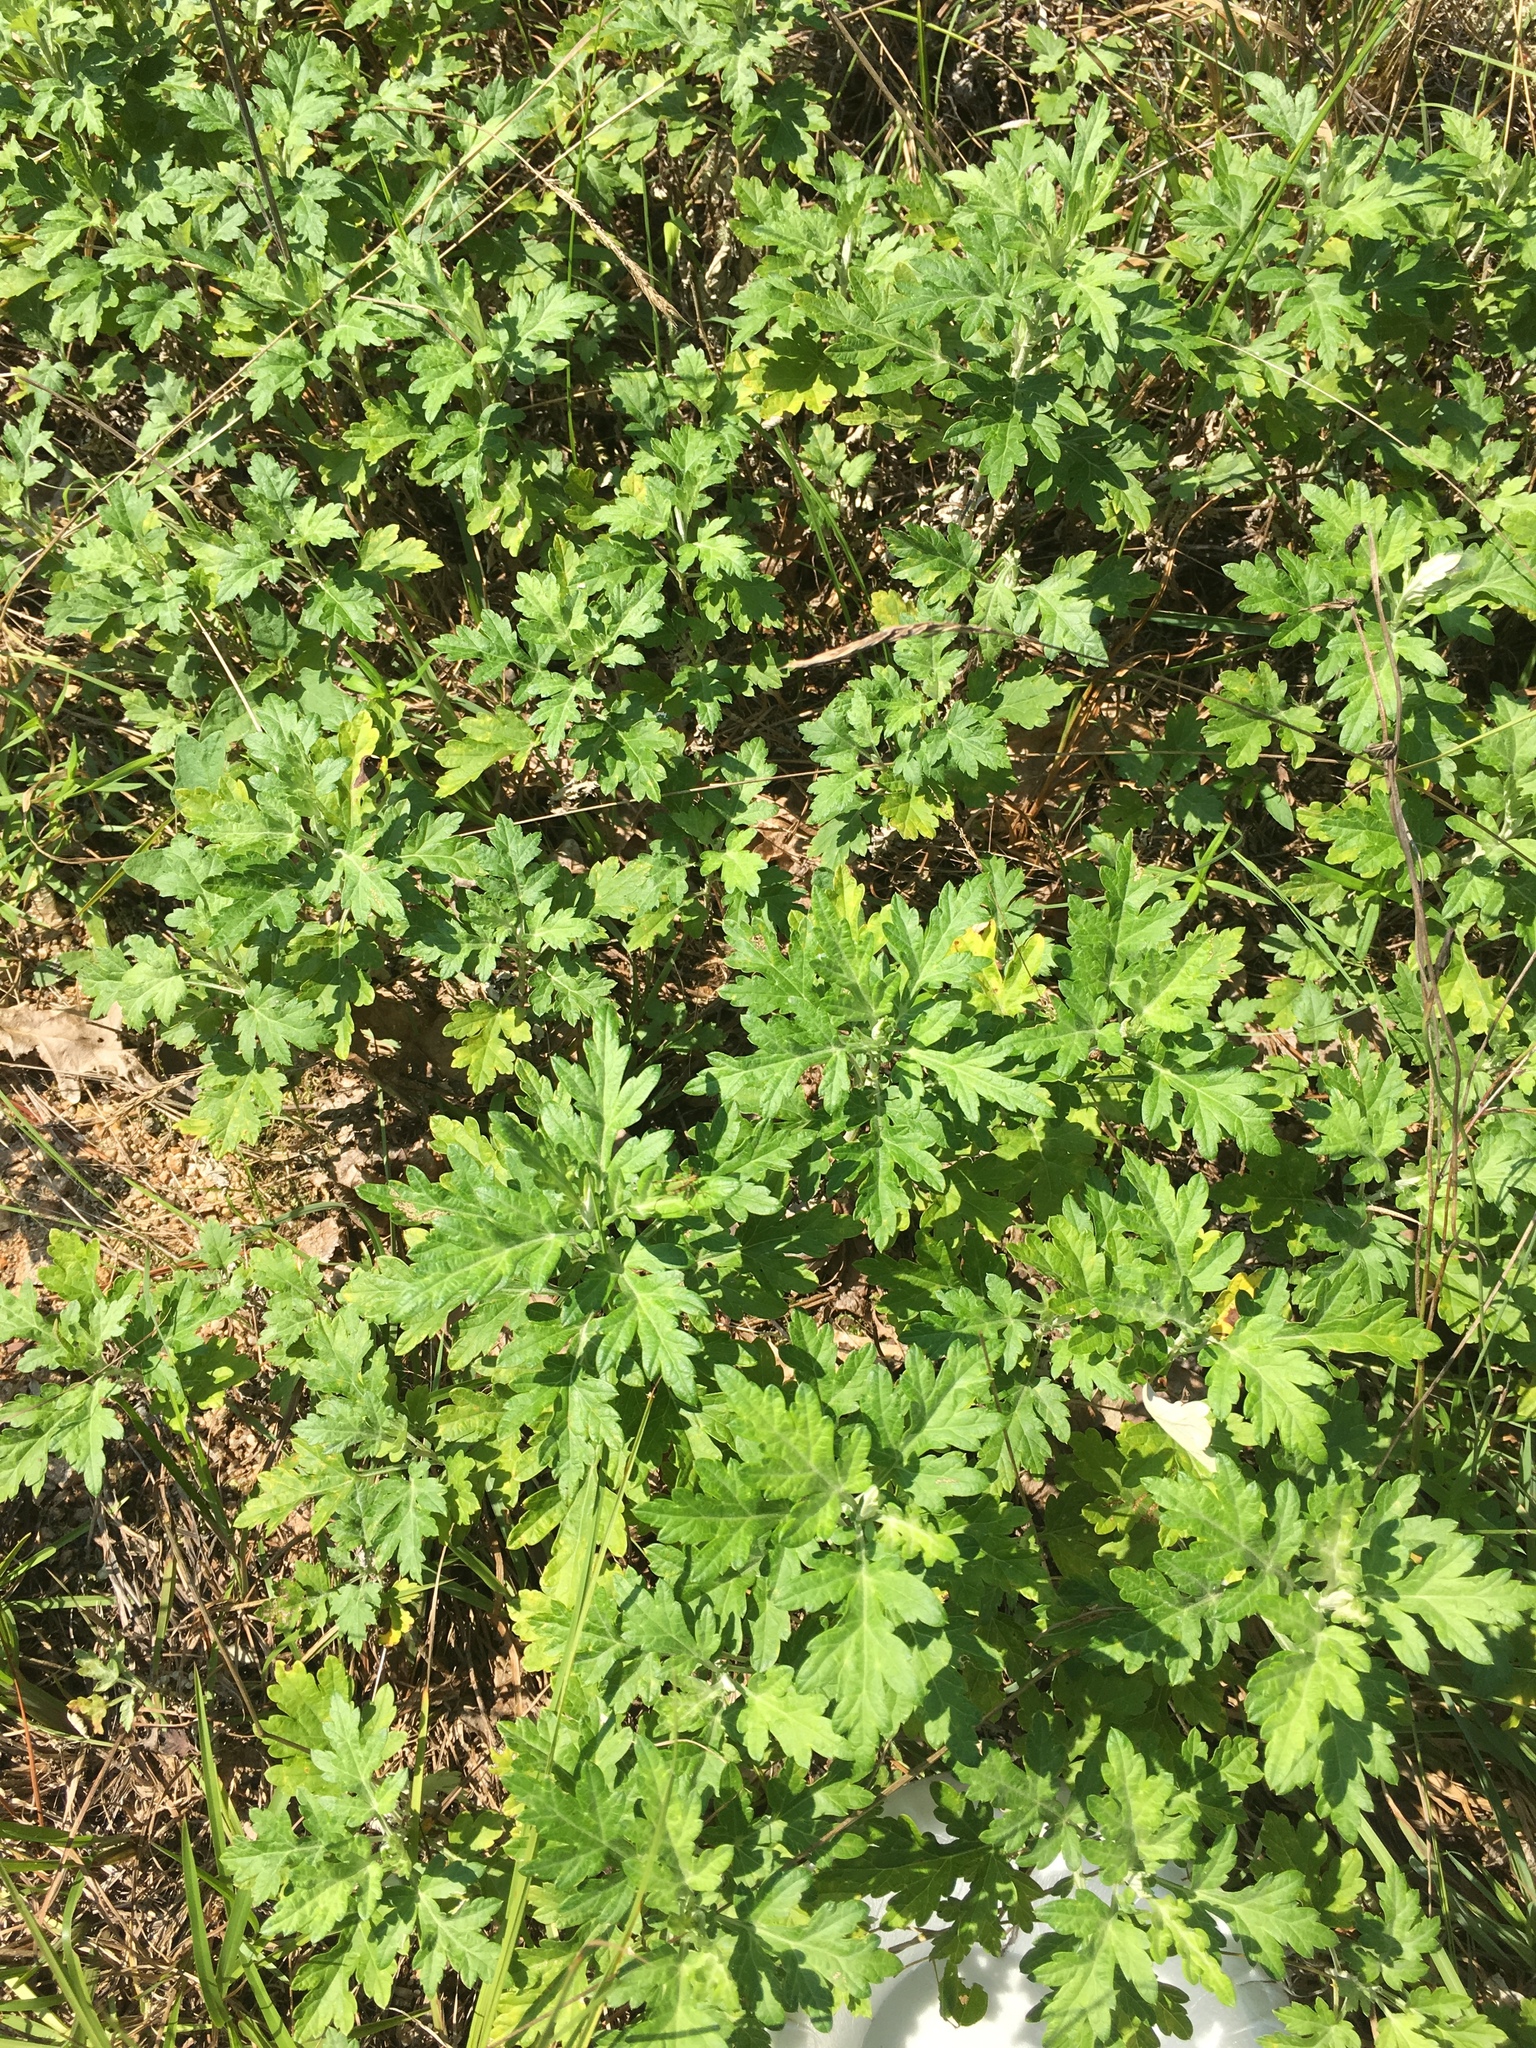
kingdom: Plantae
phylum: Tracheophyta
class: Magnoliopsida
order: Asterales
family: Asteraceae
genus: Artemisia
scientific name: Artemisia vulgaris
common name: Mugwort
